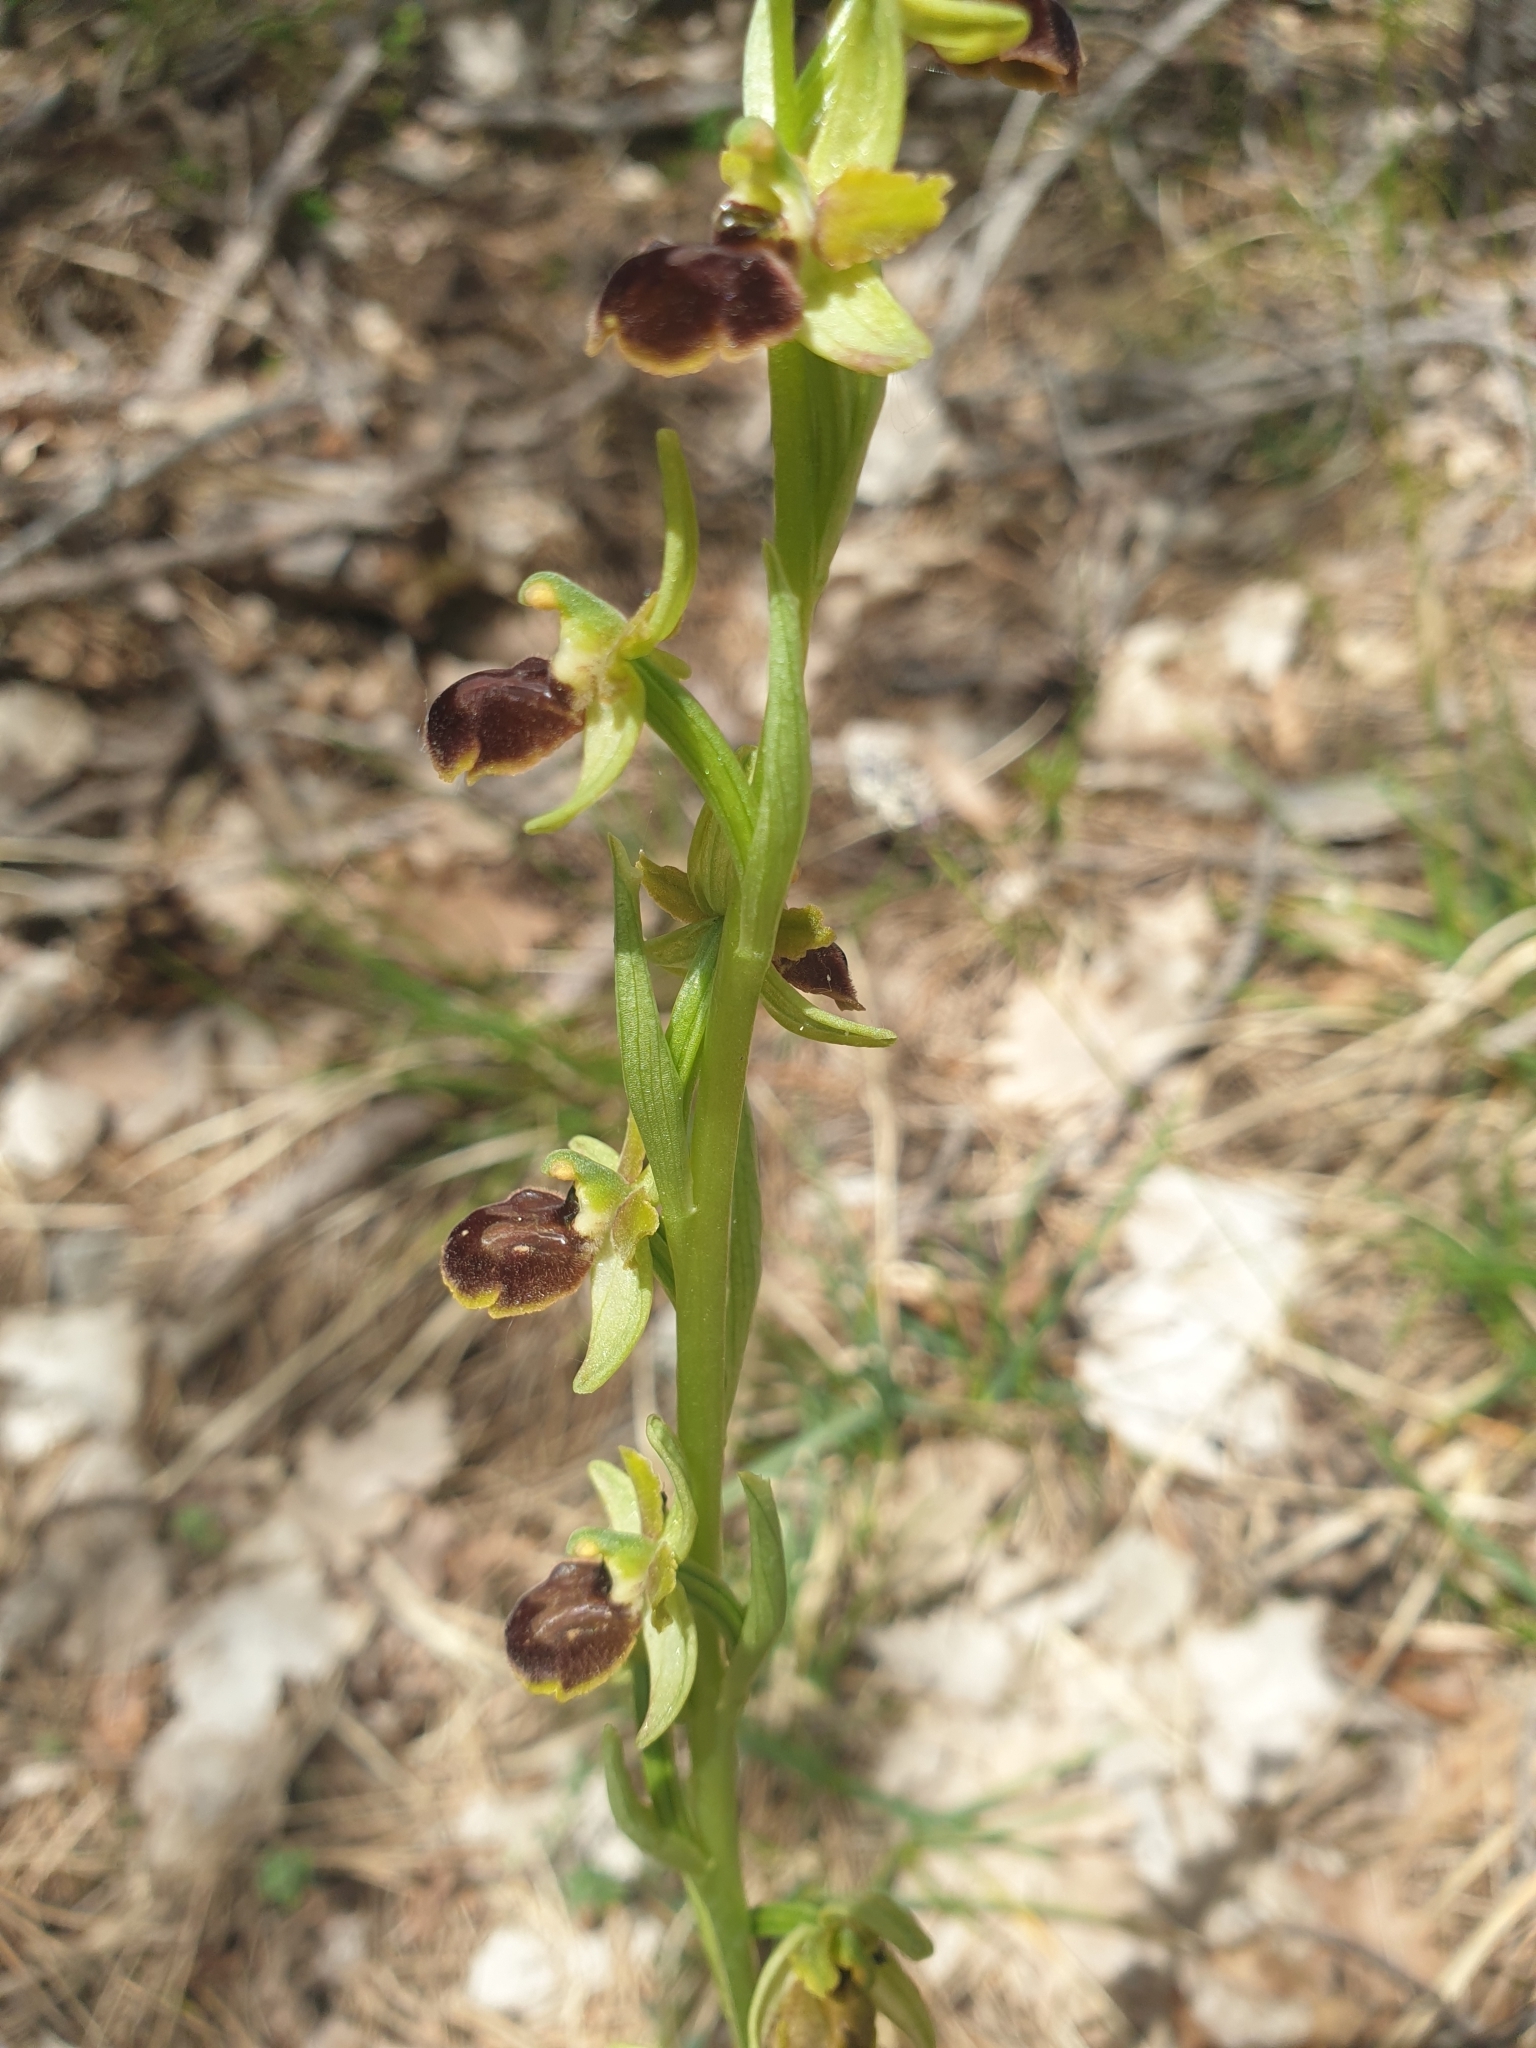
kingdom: Plantae
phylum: Tracheophyta
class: Liliopsida
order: Asparagales
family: Orchidaceae
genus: Ophrys
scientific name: Ophrys sphegodes
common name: Early spider-orchid
